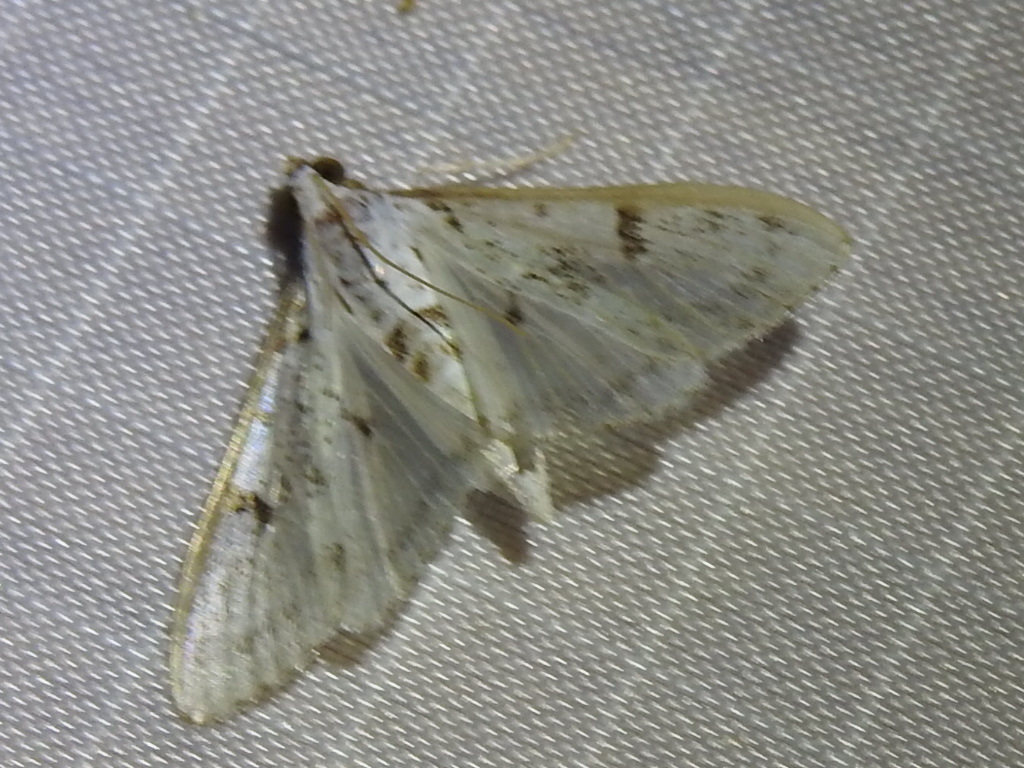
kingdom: Animalia
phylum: Arthropoda
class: Insecta
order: Lepidoptera
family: Crambidae
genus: Palpita
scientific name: Palpita gracilalis
